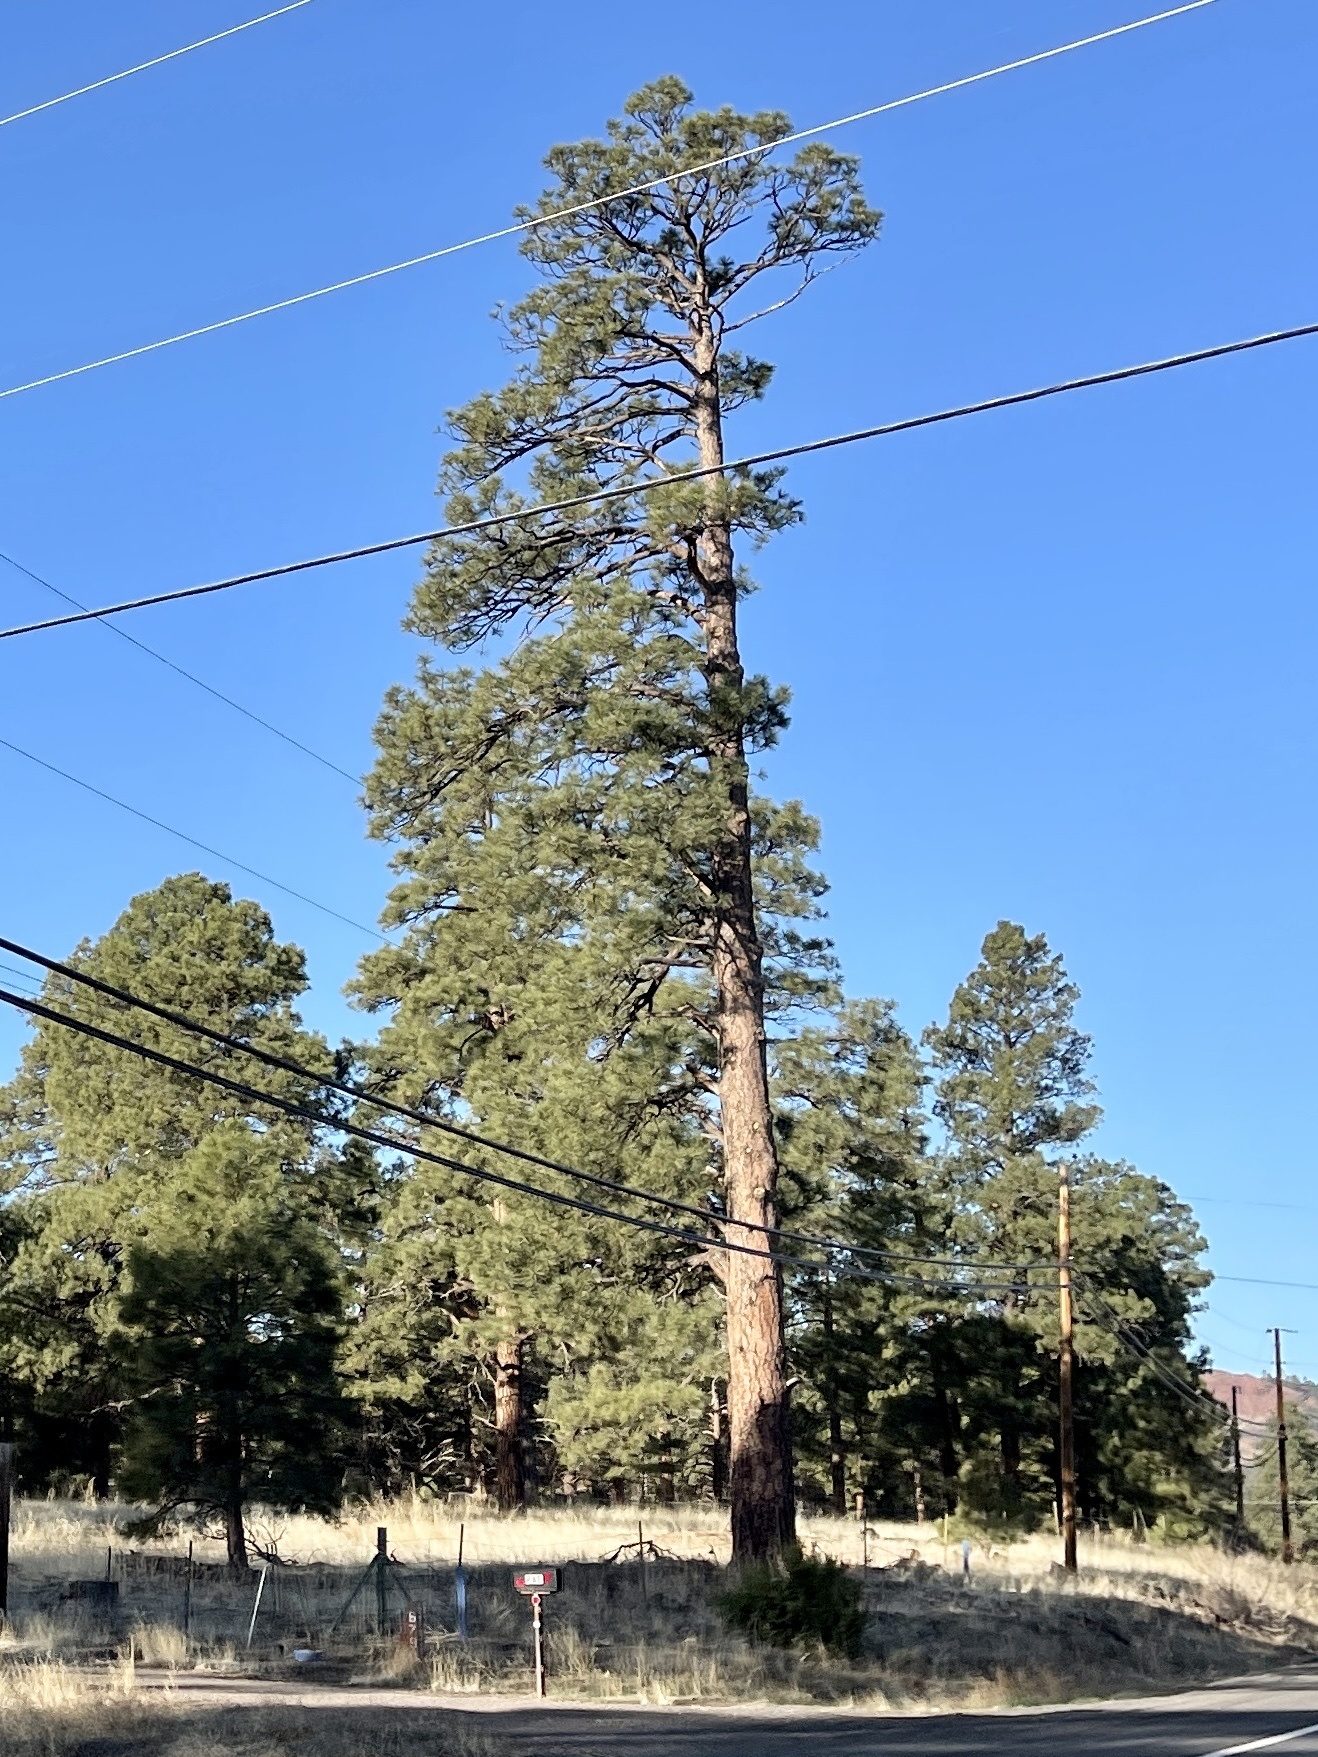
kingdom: Plantae
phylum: Tracheophyta
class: Pinopsida
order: Pinales
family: Pinaceae
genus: Pinus
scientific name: Pinus ponderosa
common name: Western yellow-pine
